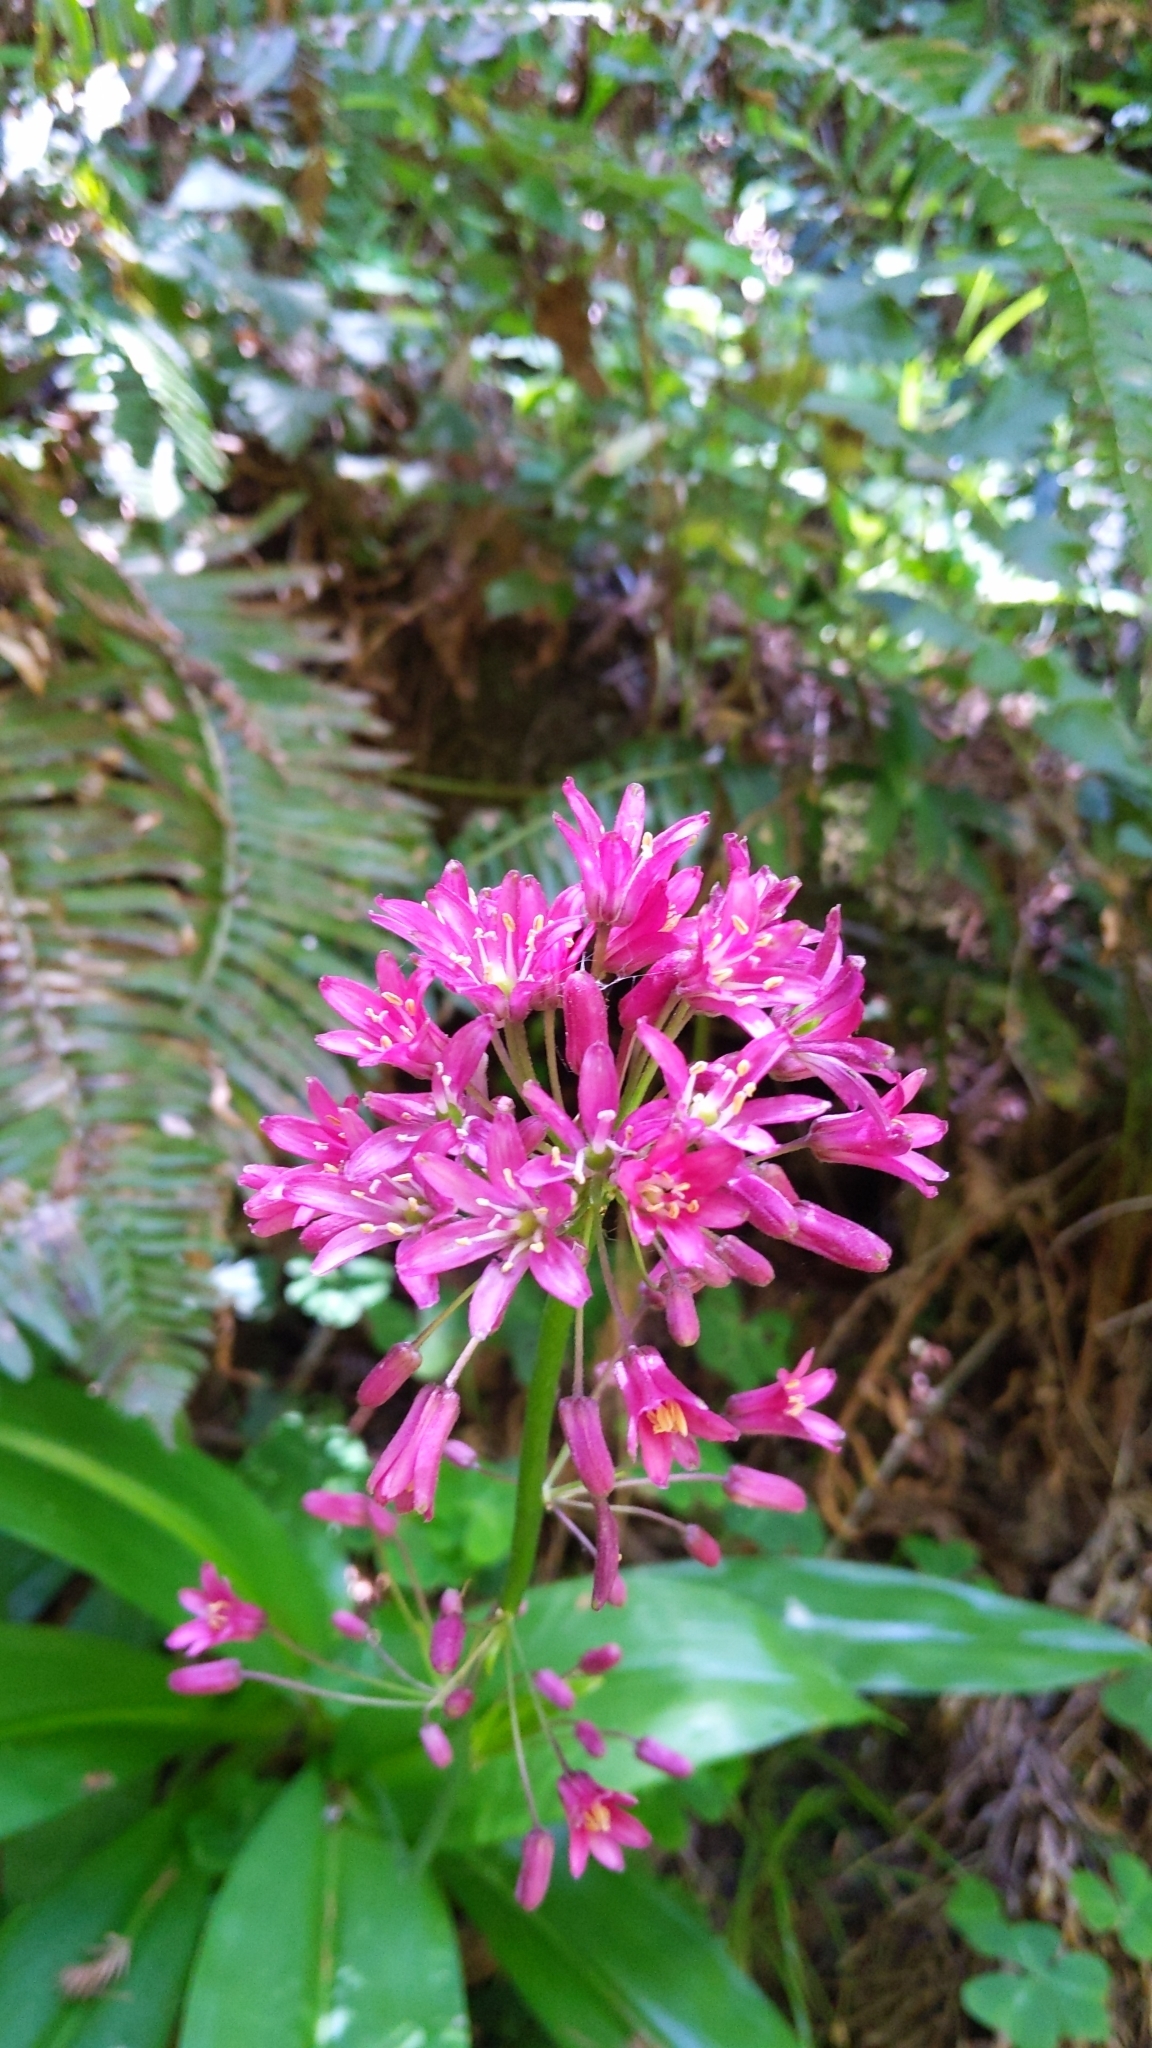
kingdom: Plantae
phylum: Tracheophyta
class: Liliopsida
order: Liliales
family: Liliaceae
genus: Clintonia
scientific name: Clintonia andrewsiana
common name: Red clintonia
